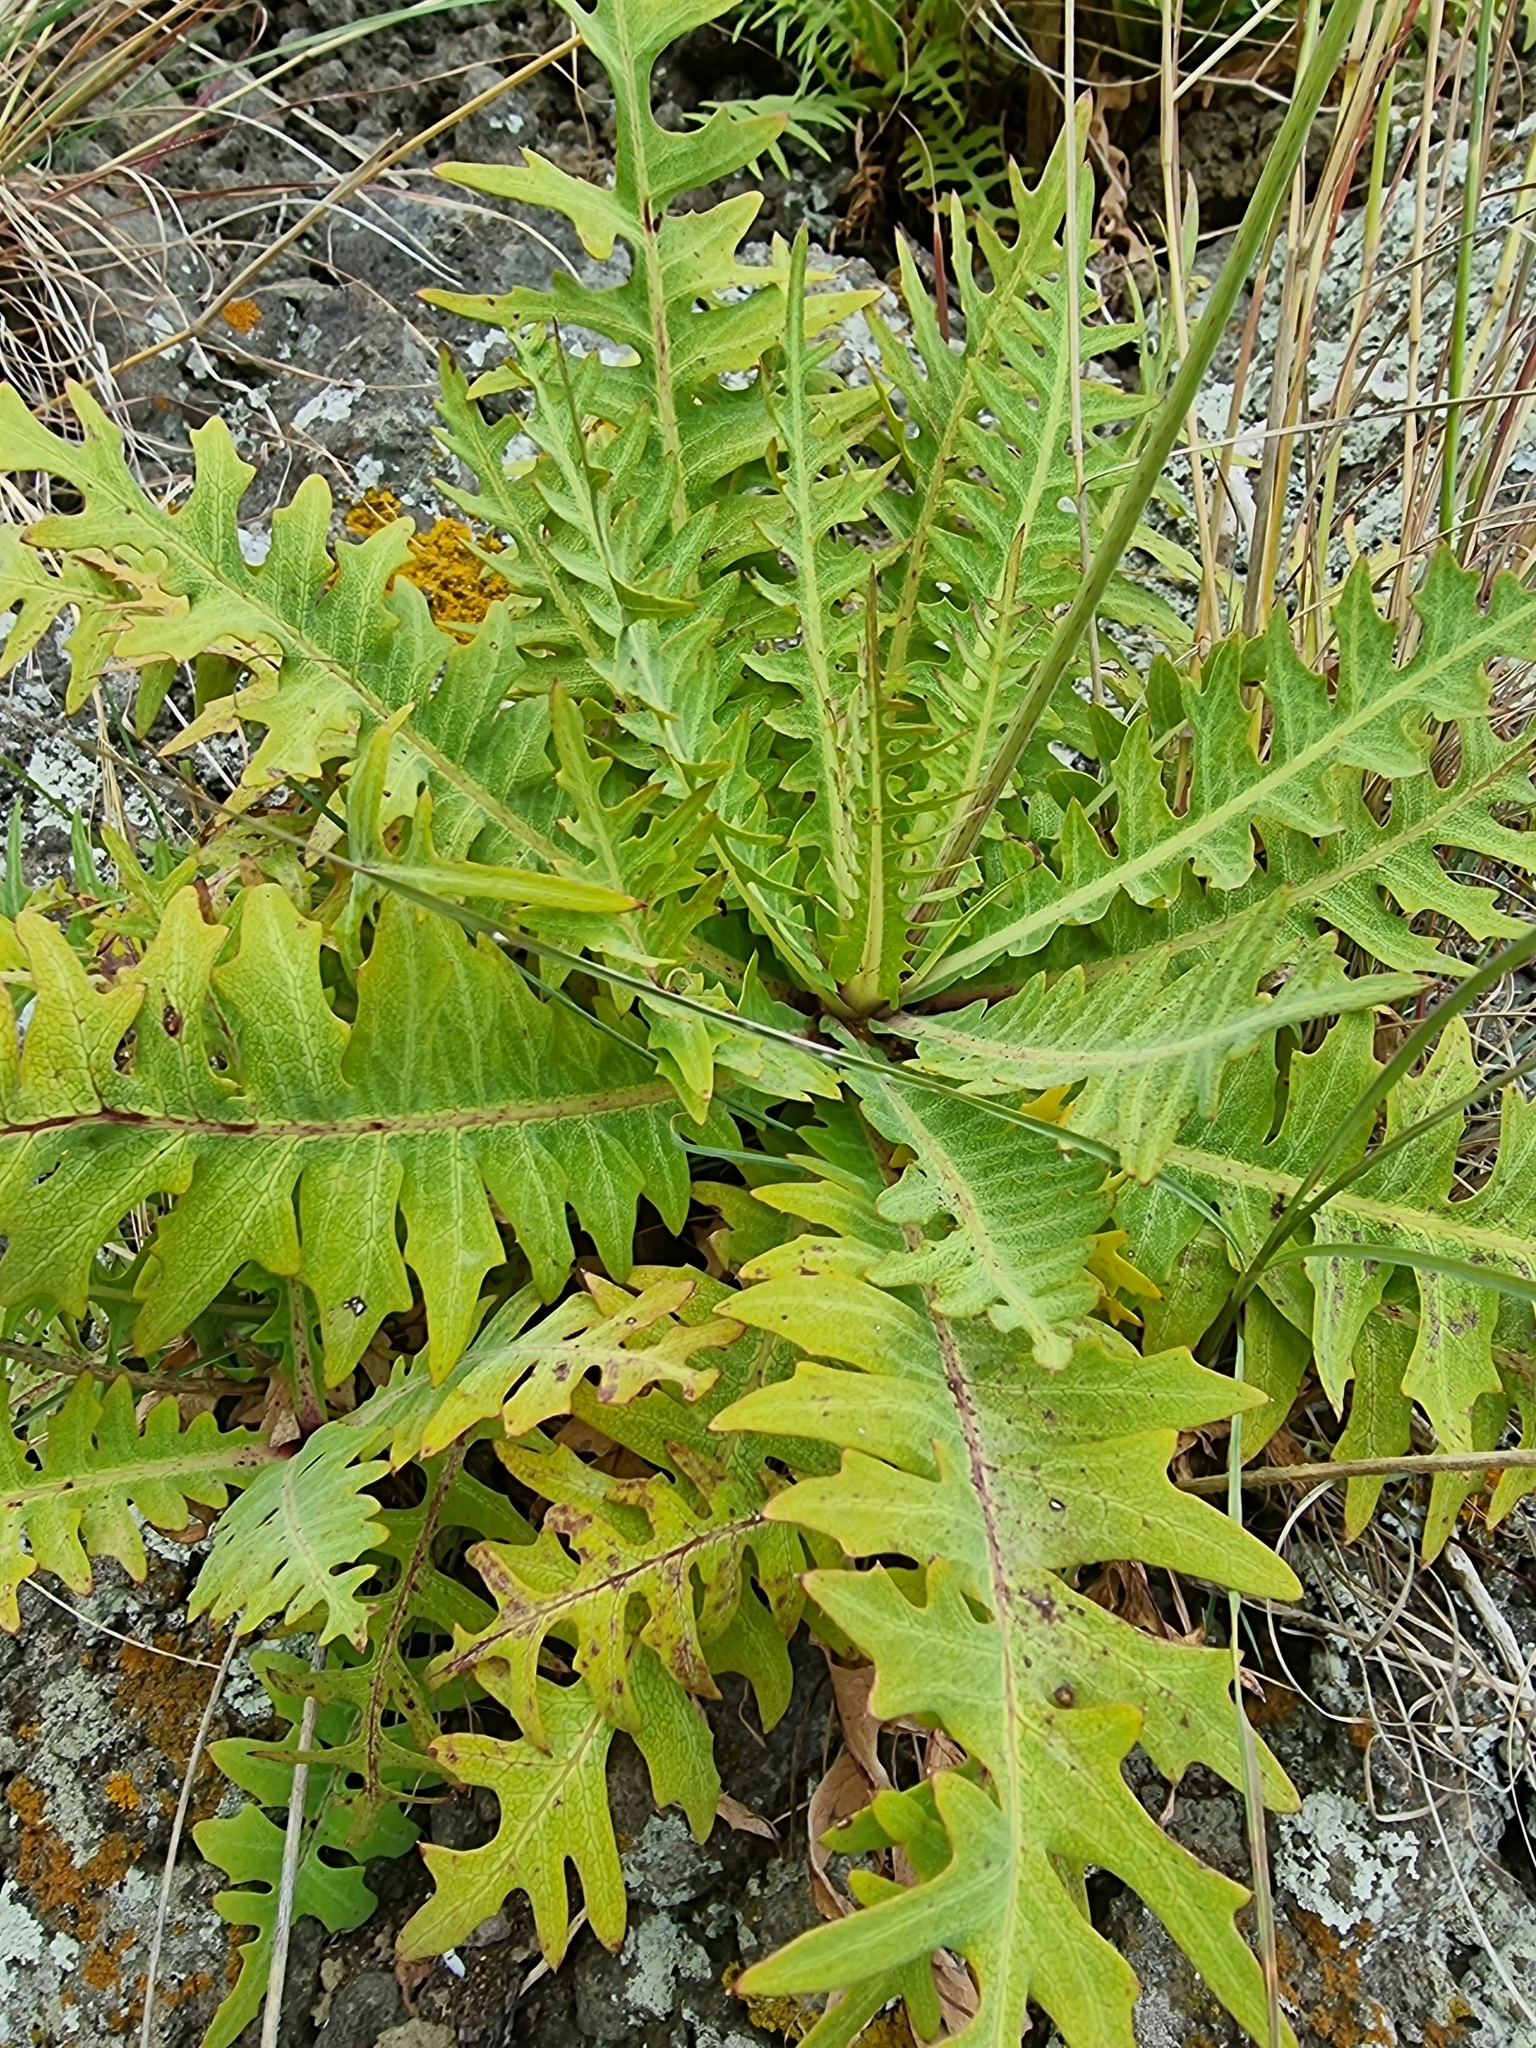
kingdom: Plantae
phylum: Tracheophyta
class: Magnoliopsida
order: Asterales
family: Asteraceae
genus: Sonchus
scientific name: Sonchus ustulatus
